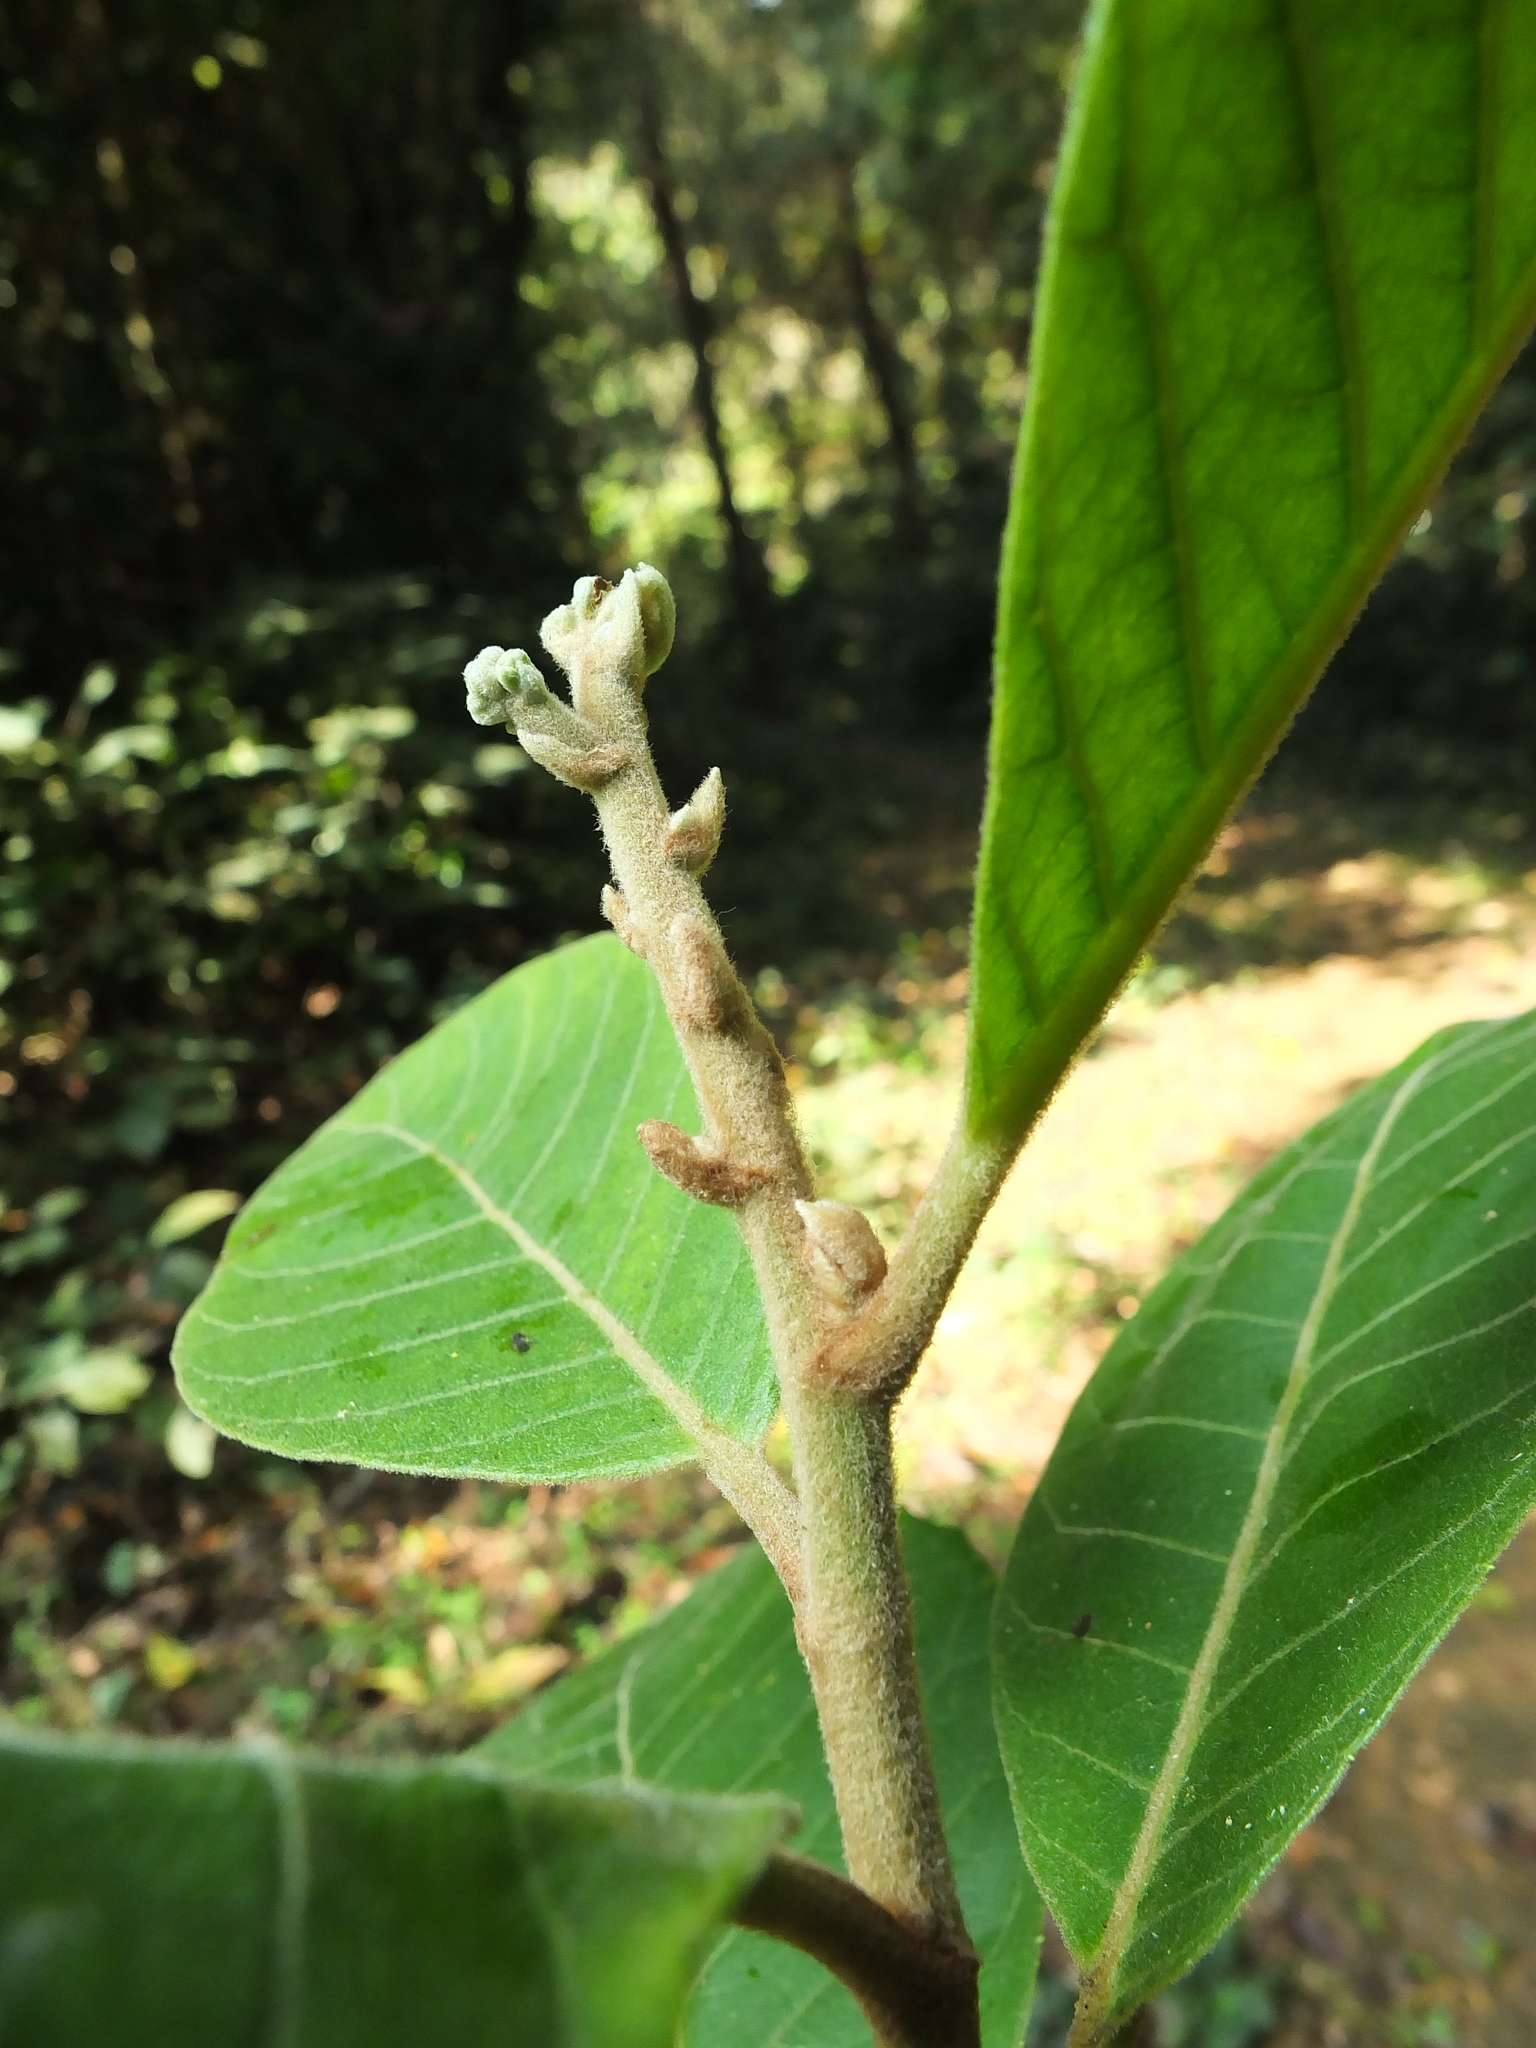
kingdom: Plantae
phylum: Tracheophyta
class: Magnoliopsida
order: Asterales
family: Asteraceae
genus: Strobocalyx
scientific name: Strobocalyx arborea
